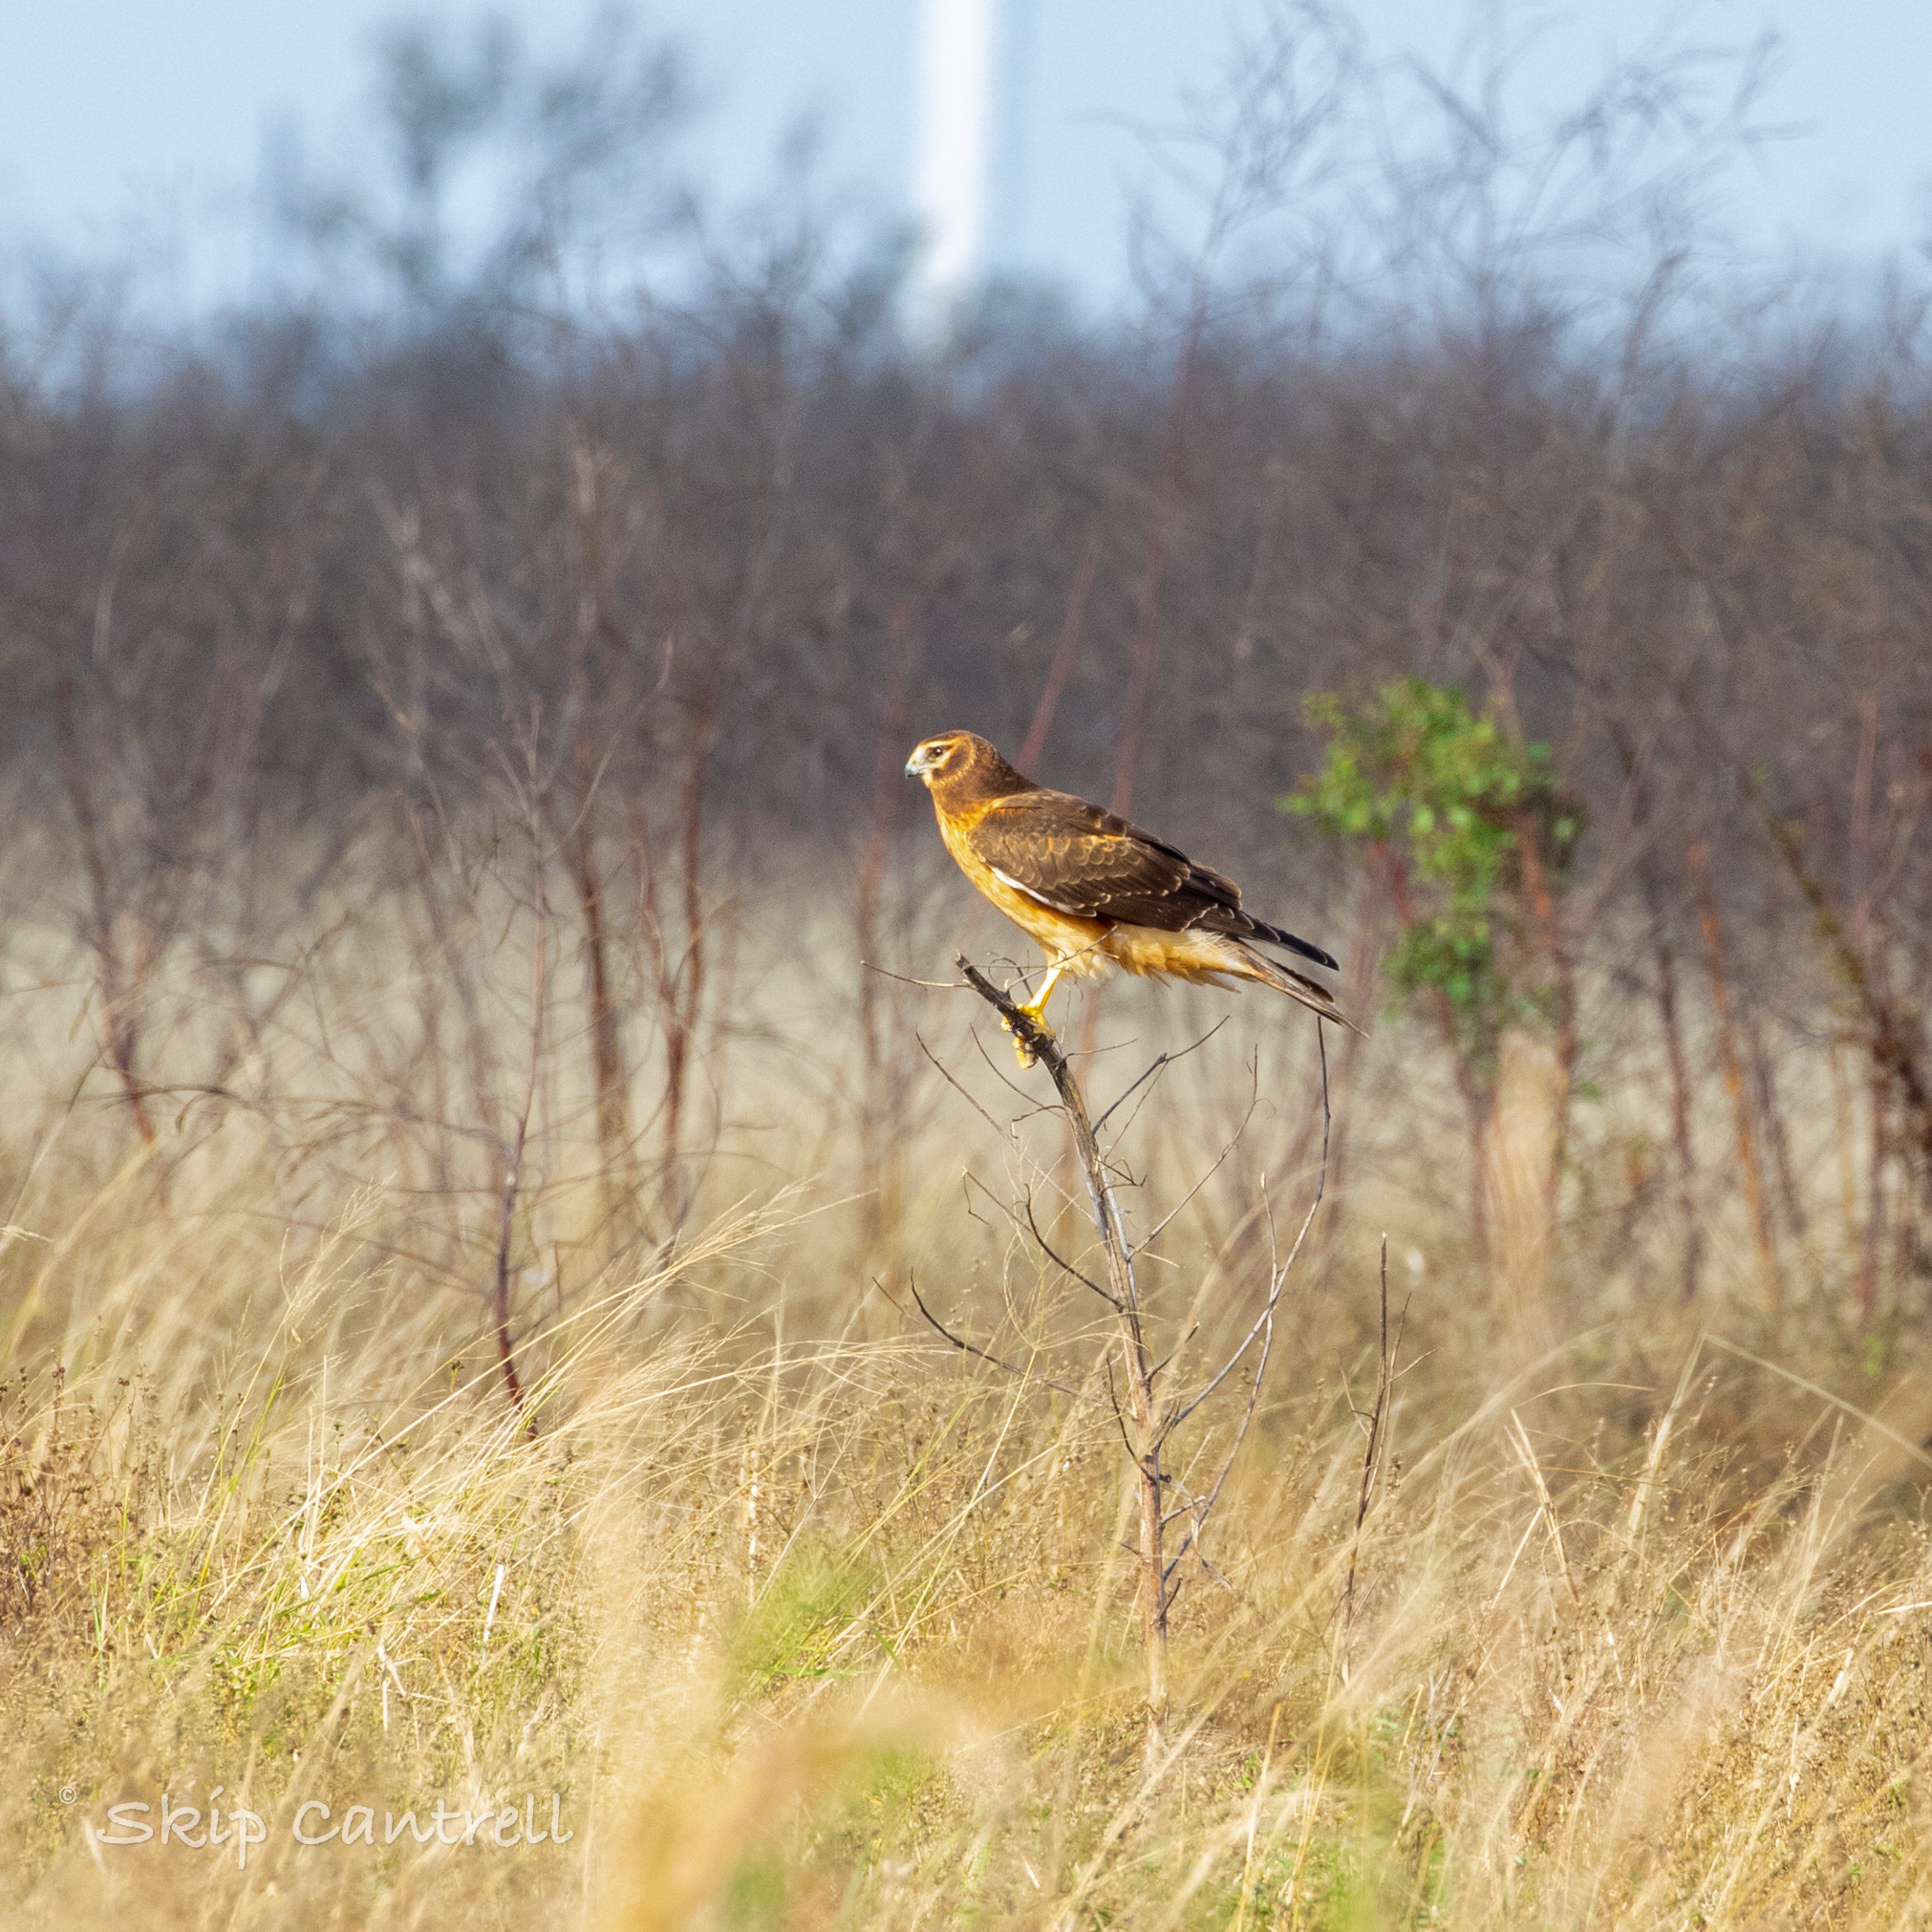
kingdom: Animalia
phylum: Chordata
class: Aves
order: Accipitriformes
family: Accipitridae
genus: Circus
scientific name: Circus cyaneus
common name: Hen harrier
